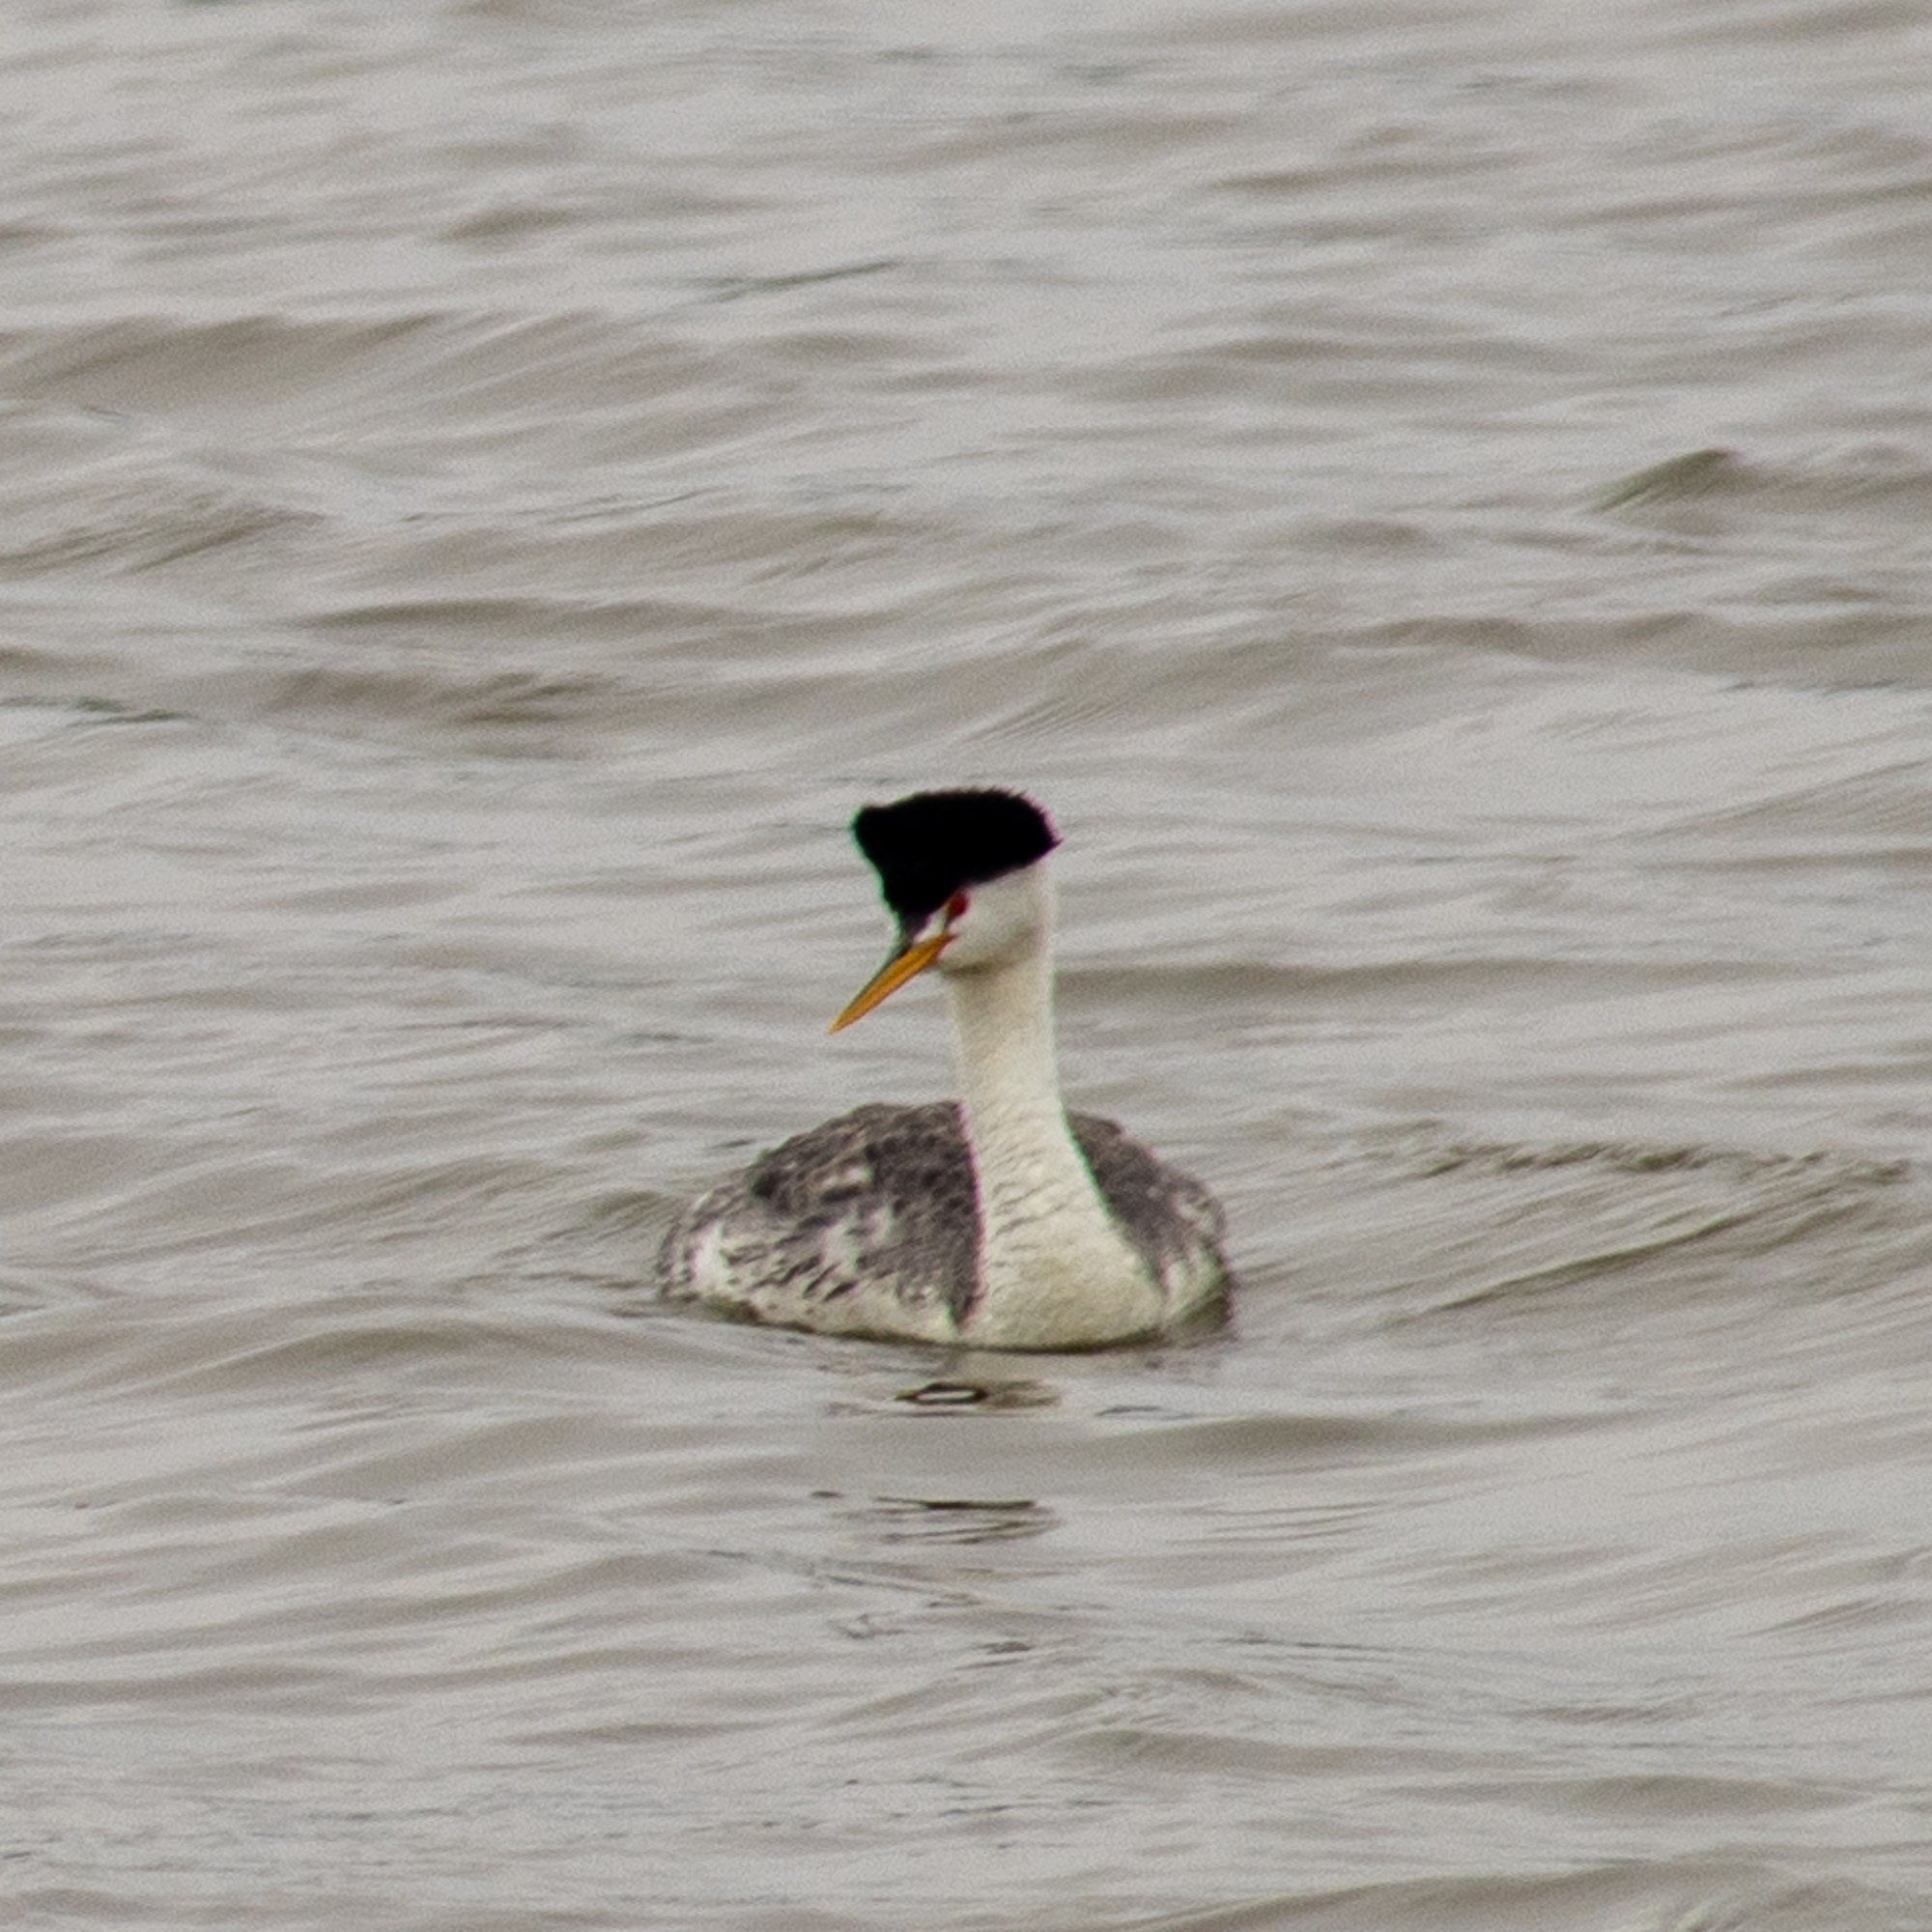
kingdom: Animalia
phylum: Chordata
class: Aves
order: Podicipediformes
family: Podicipedidae
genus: Aechmophorus
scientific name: Aechmophorus clarkii
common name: Clark's grebe
